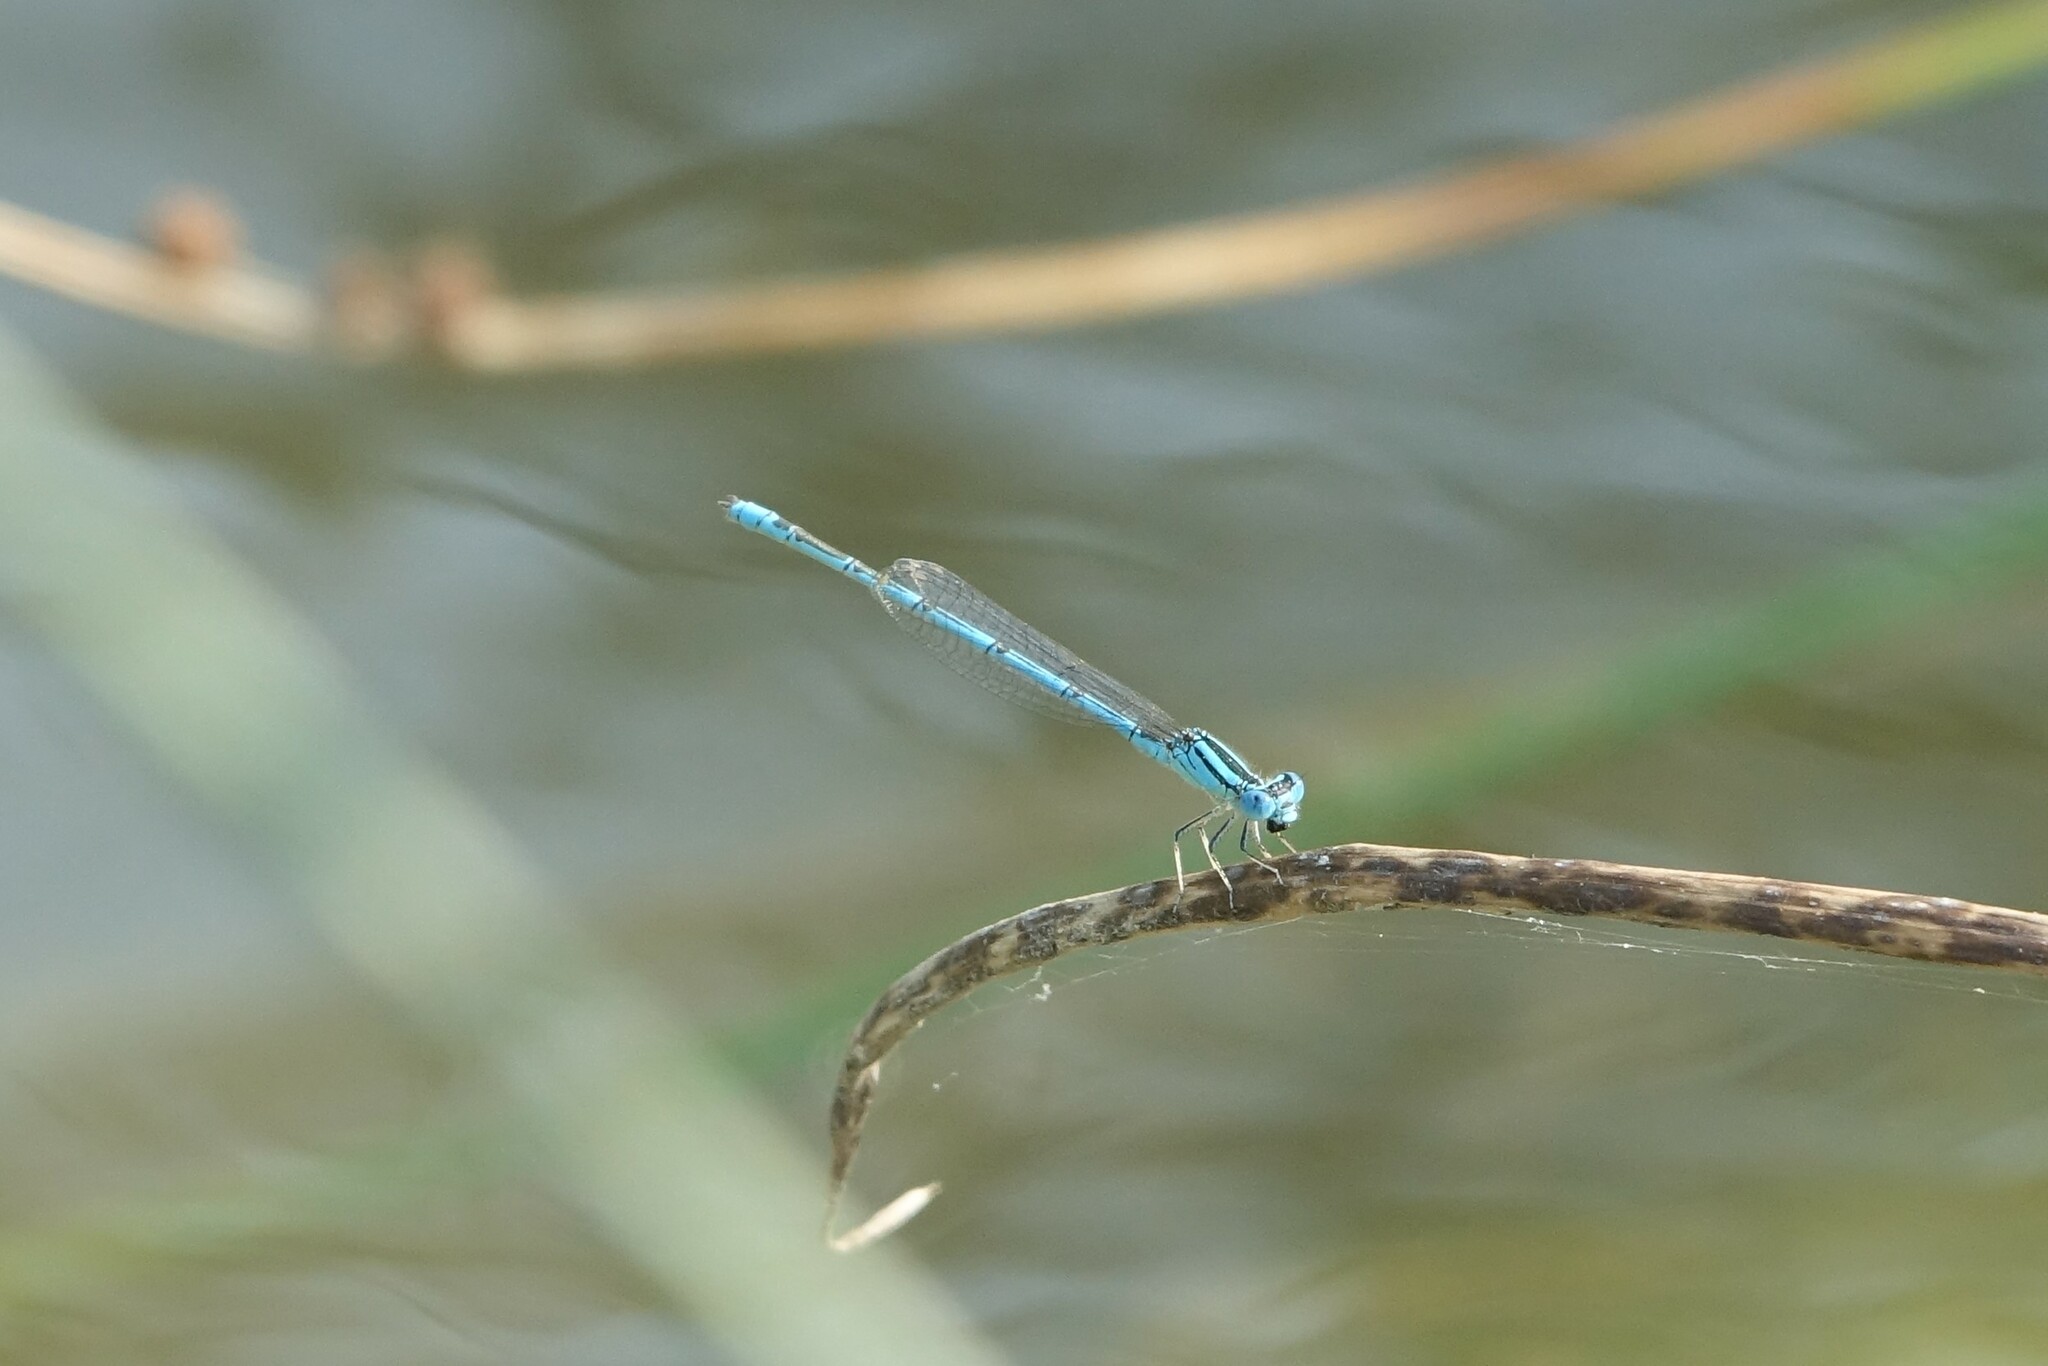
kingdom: Animalia
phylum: Arthropoda
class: Insecta
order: Odonata
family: Coenagrionidae
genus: Erythromma
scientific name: Erythromma lindenii
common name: Blue-eye
